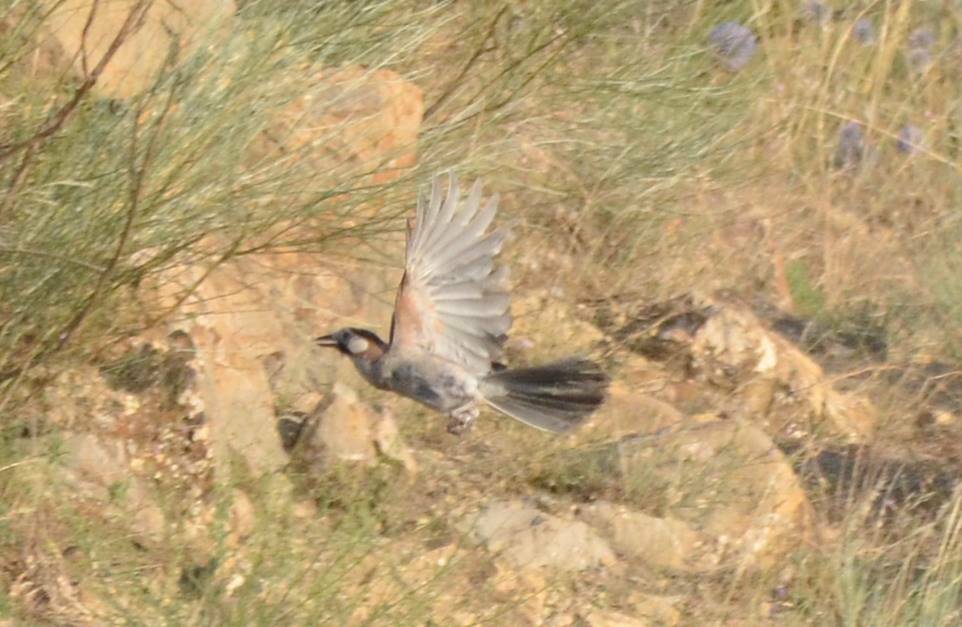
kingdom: Animalia
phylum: Chordata
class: Aves
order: Passeriformes
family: Corvidae
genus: Garrulus
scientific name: Garrulus glandarius
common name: Eurasian jay
